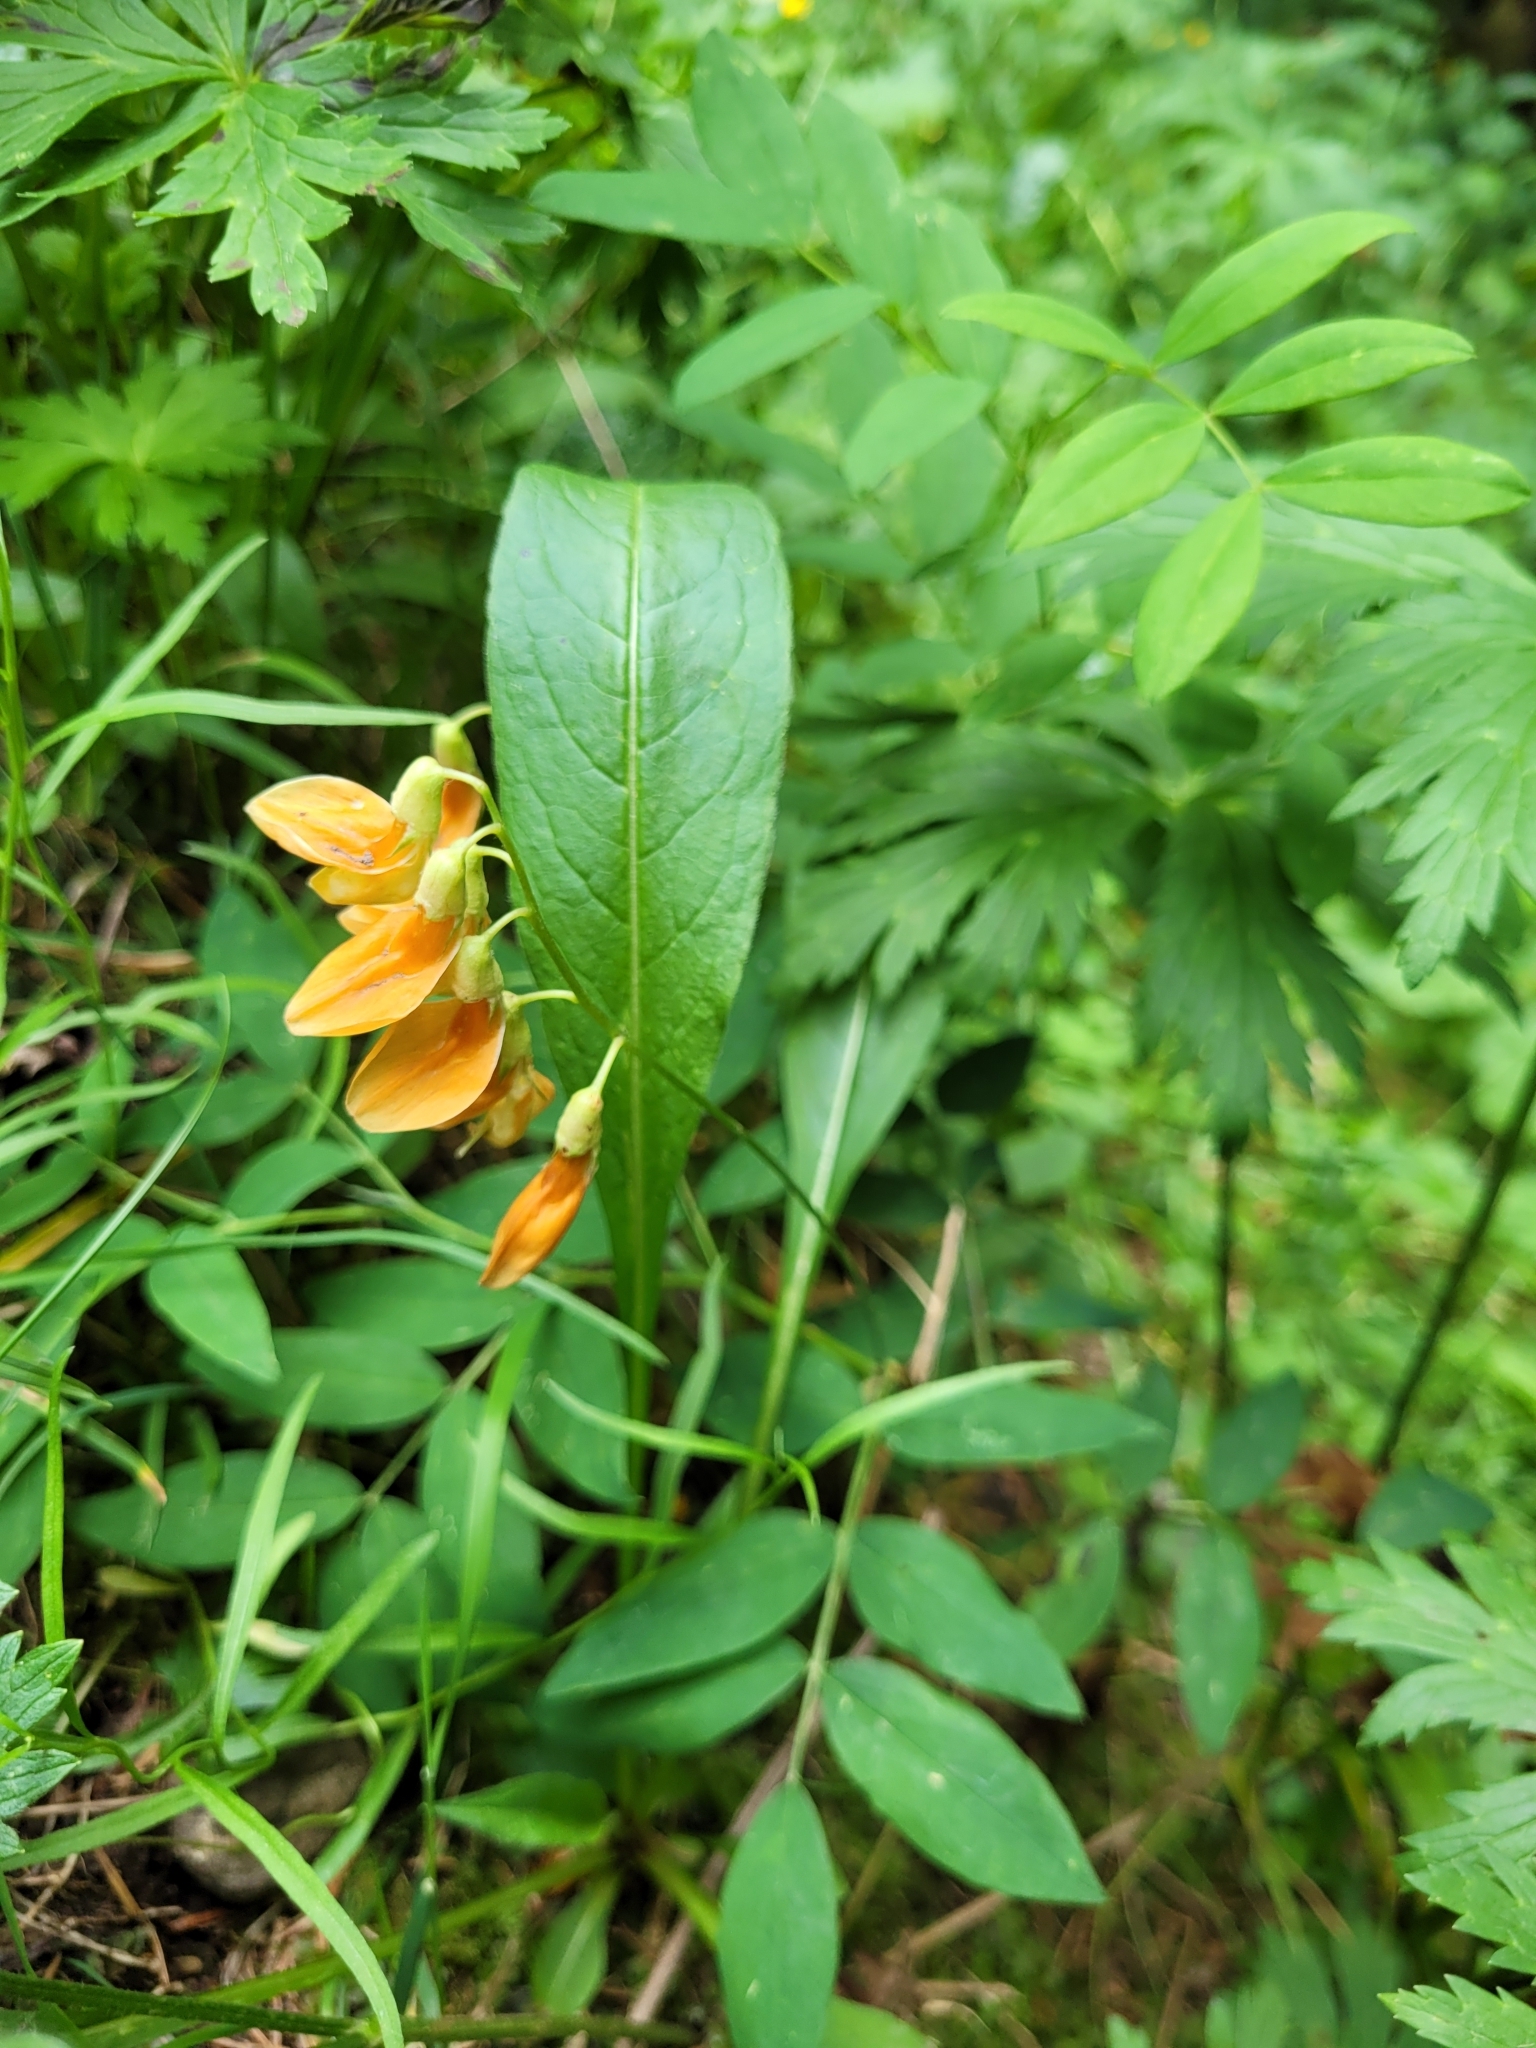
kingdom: Plantae
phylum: Tracheophyta
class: Magnoliopsida
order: Fabales
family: Fabaceae
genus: Lathyrus
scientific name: Lathyrus laevigatus
